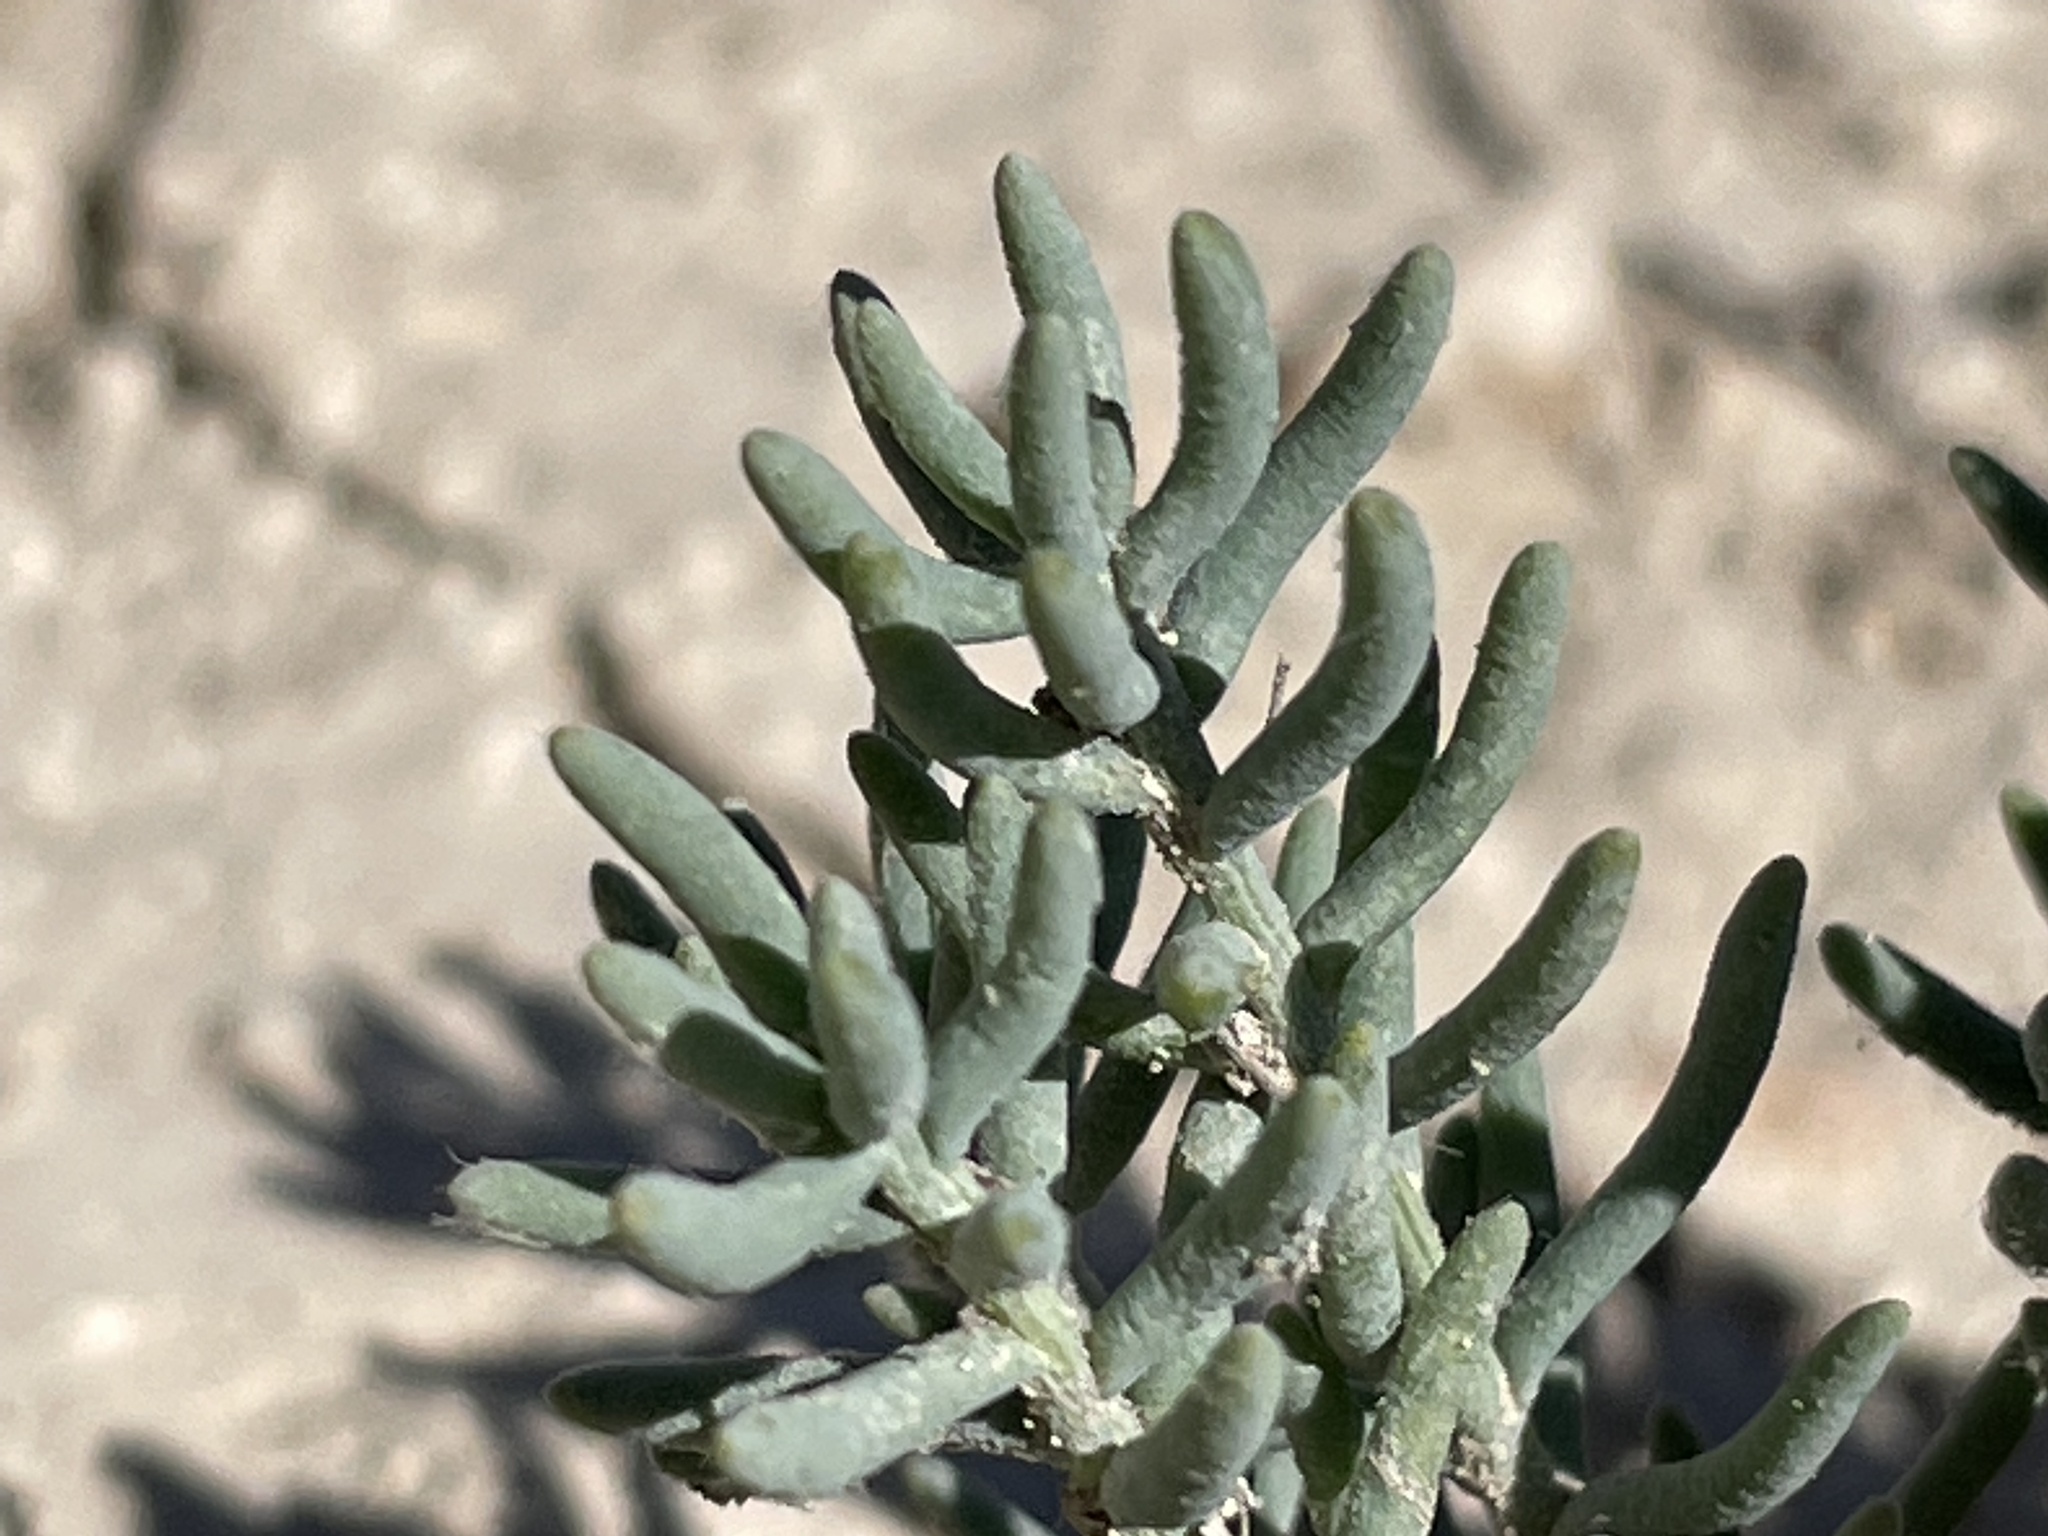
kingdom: Plantae
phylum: Tracheophyta
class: Magnoliopsida
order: Caryophyllales
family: Amaranthaceae
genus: Suaeda
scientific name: Suaeda nigra
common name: Bush seepweed
